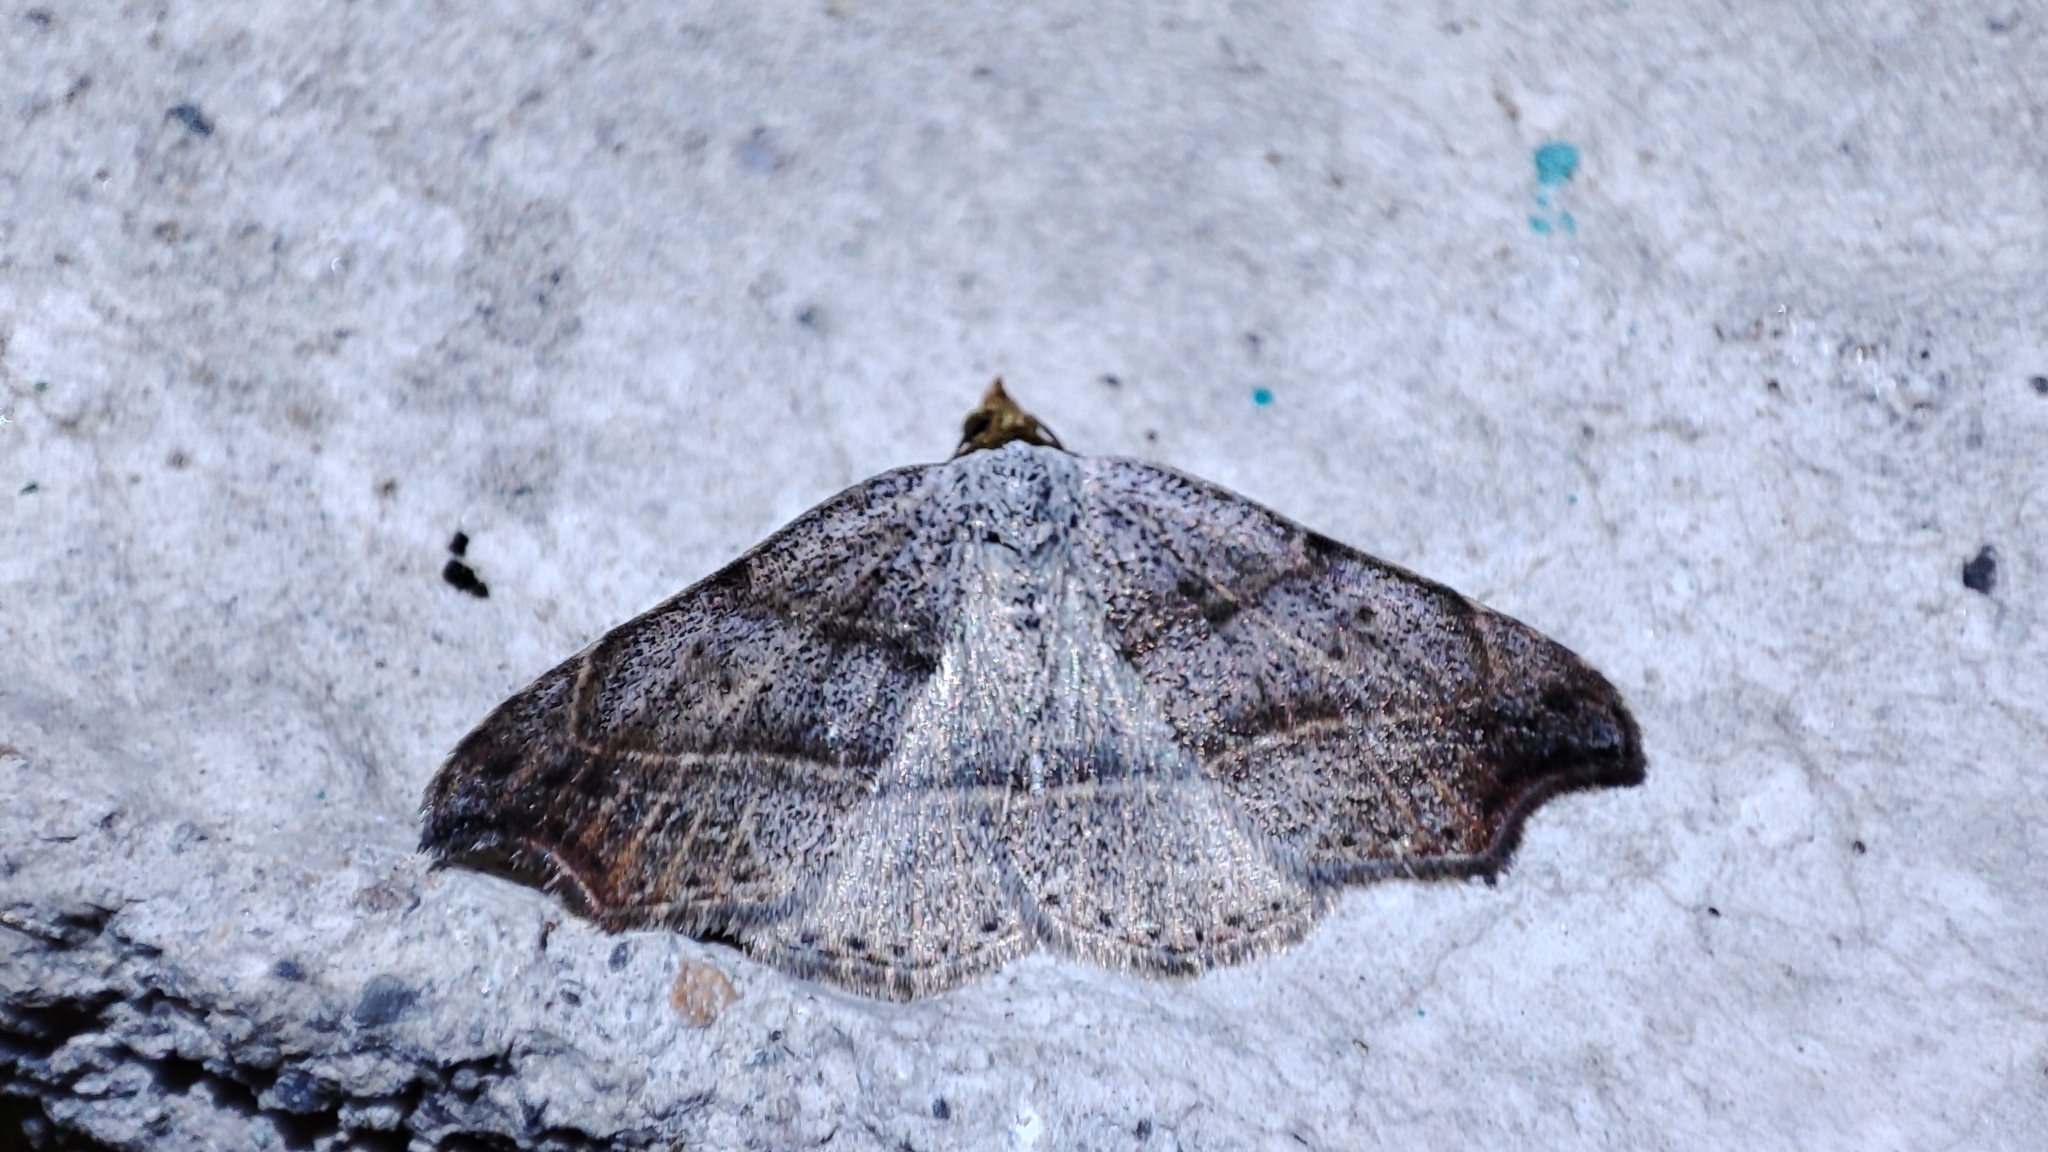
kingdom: Animalia
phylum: Arthropoda
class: Insecta
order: Lepidoptera
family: Erebidae
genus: Laspeyria
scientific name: Laspeyria flexula
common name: Beautiful hook-tip
